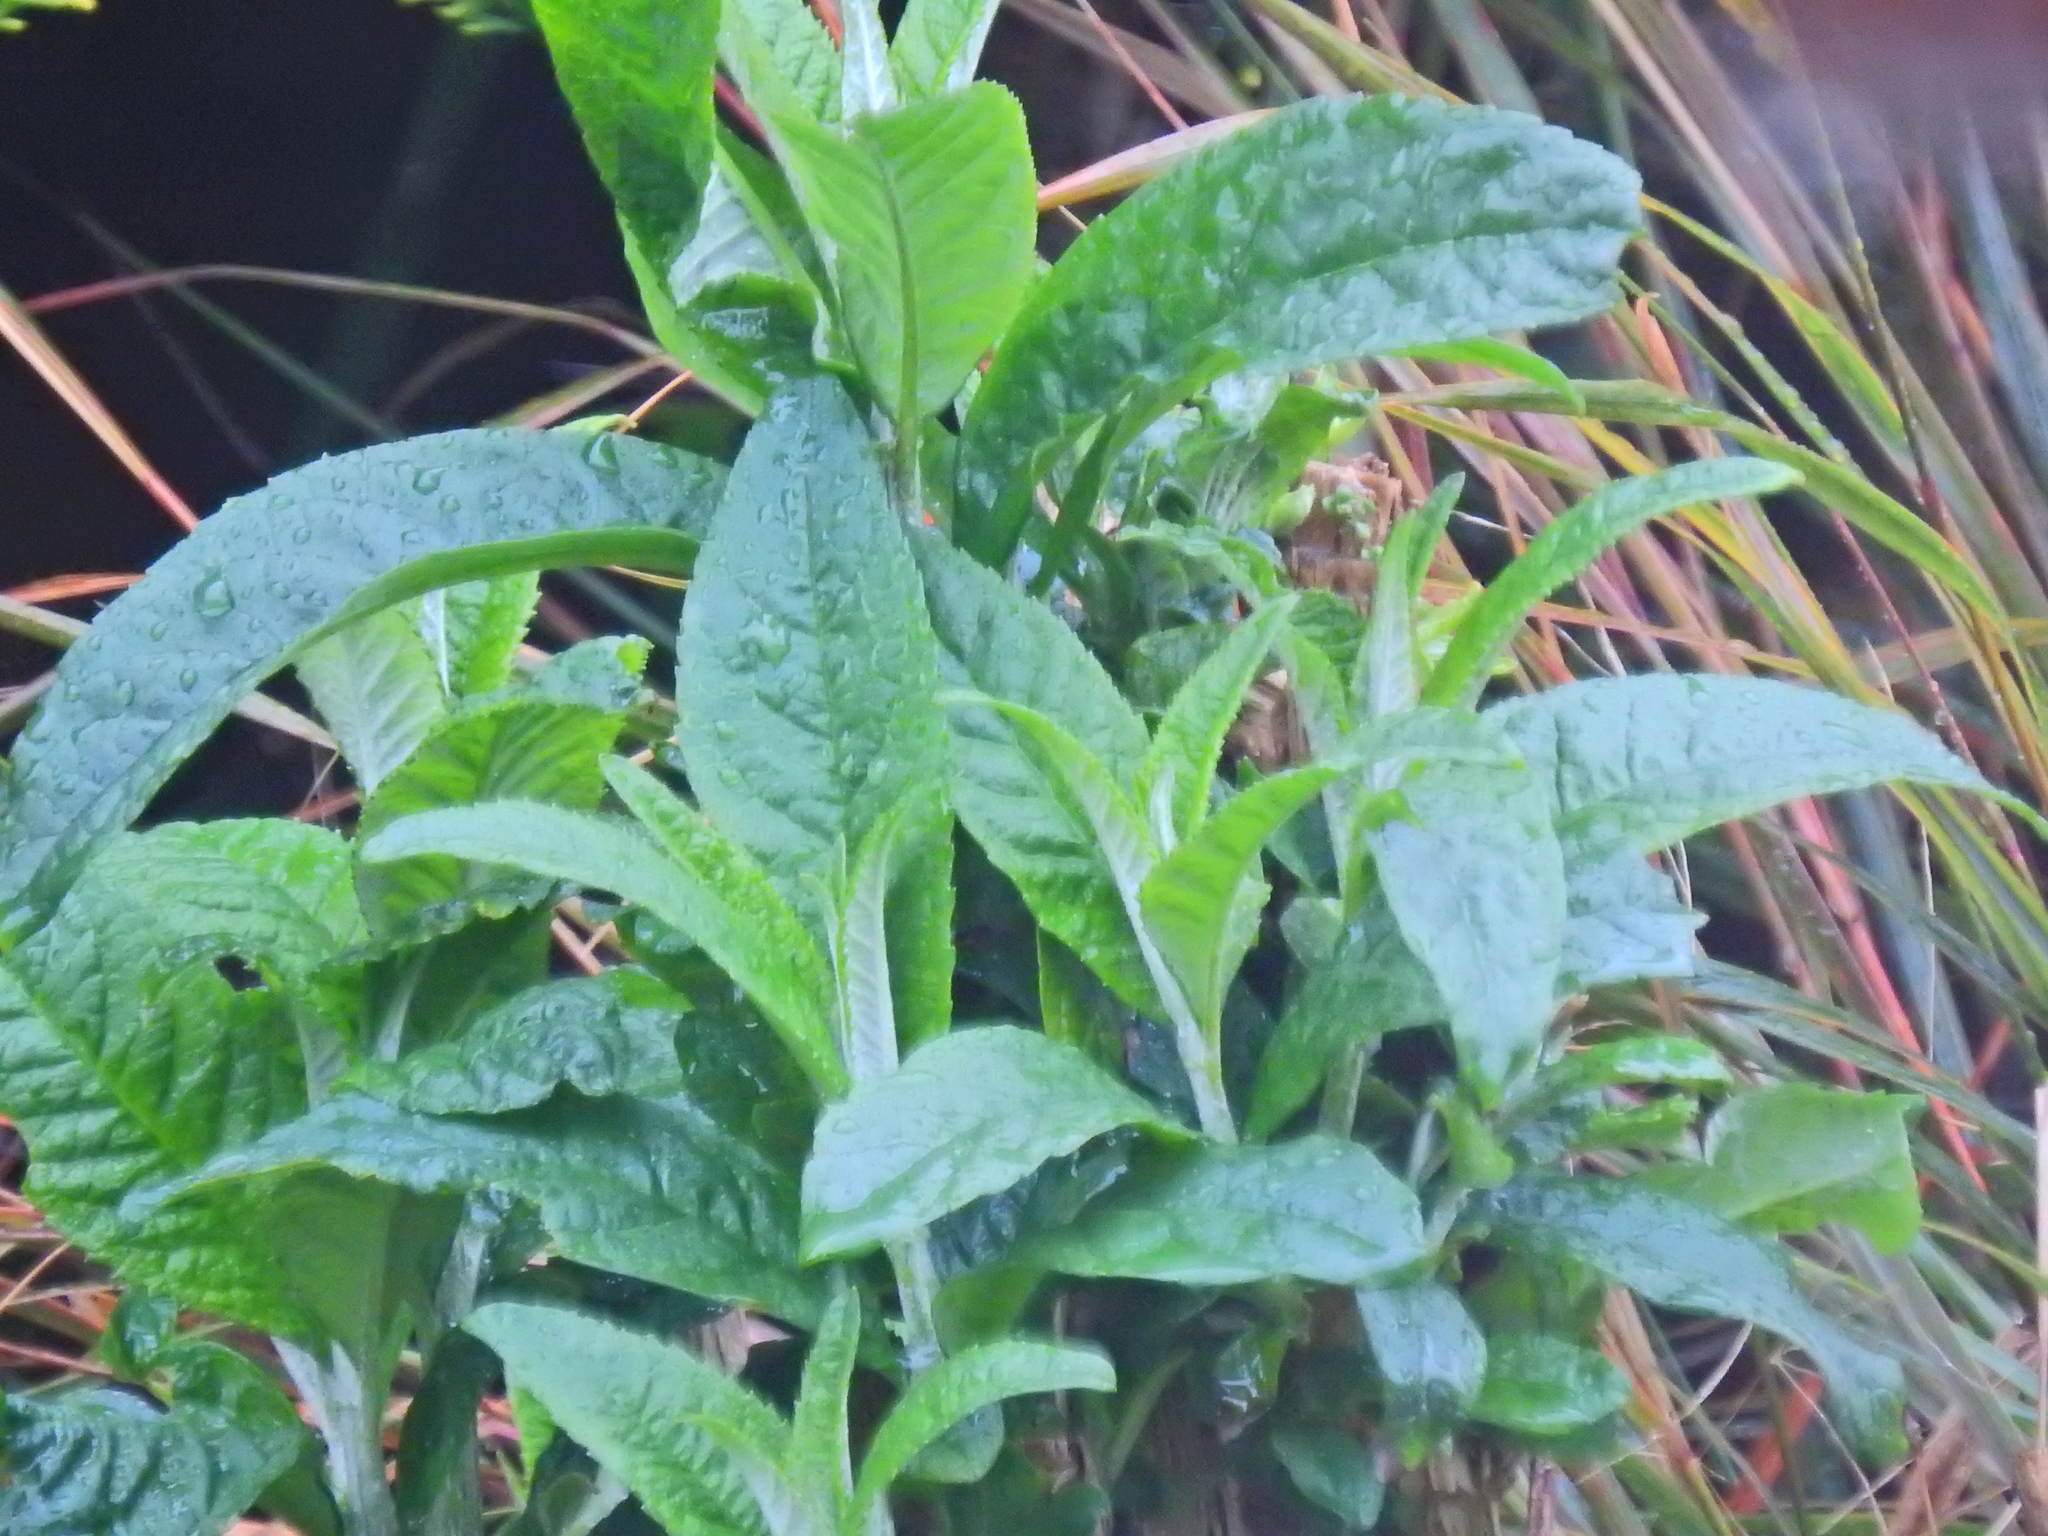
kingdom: Plantae
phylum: Tracheophyta
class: Magnoliopsida
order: Lamiales
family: Scrophulariaceae
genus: Buddleja
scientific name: Buddleja davidii
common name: Butterfly-bush
